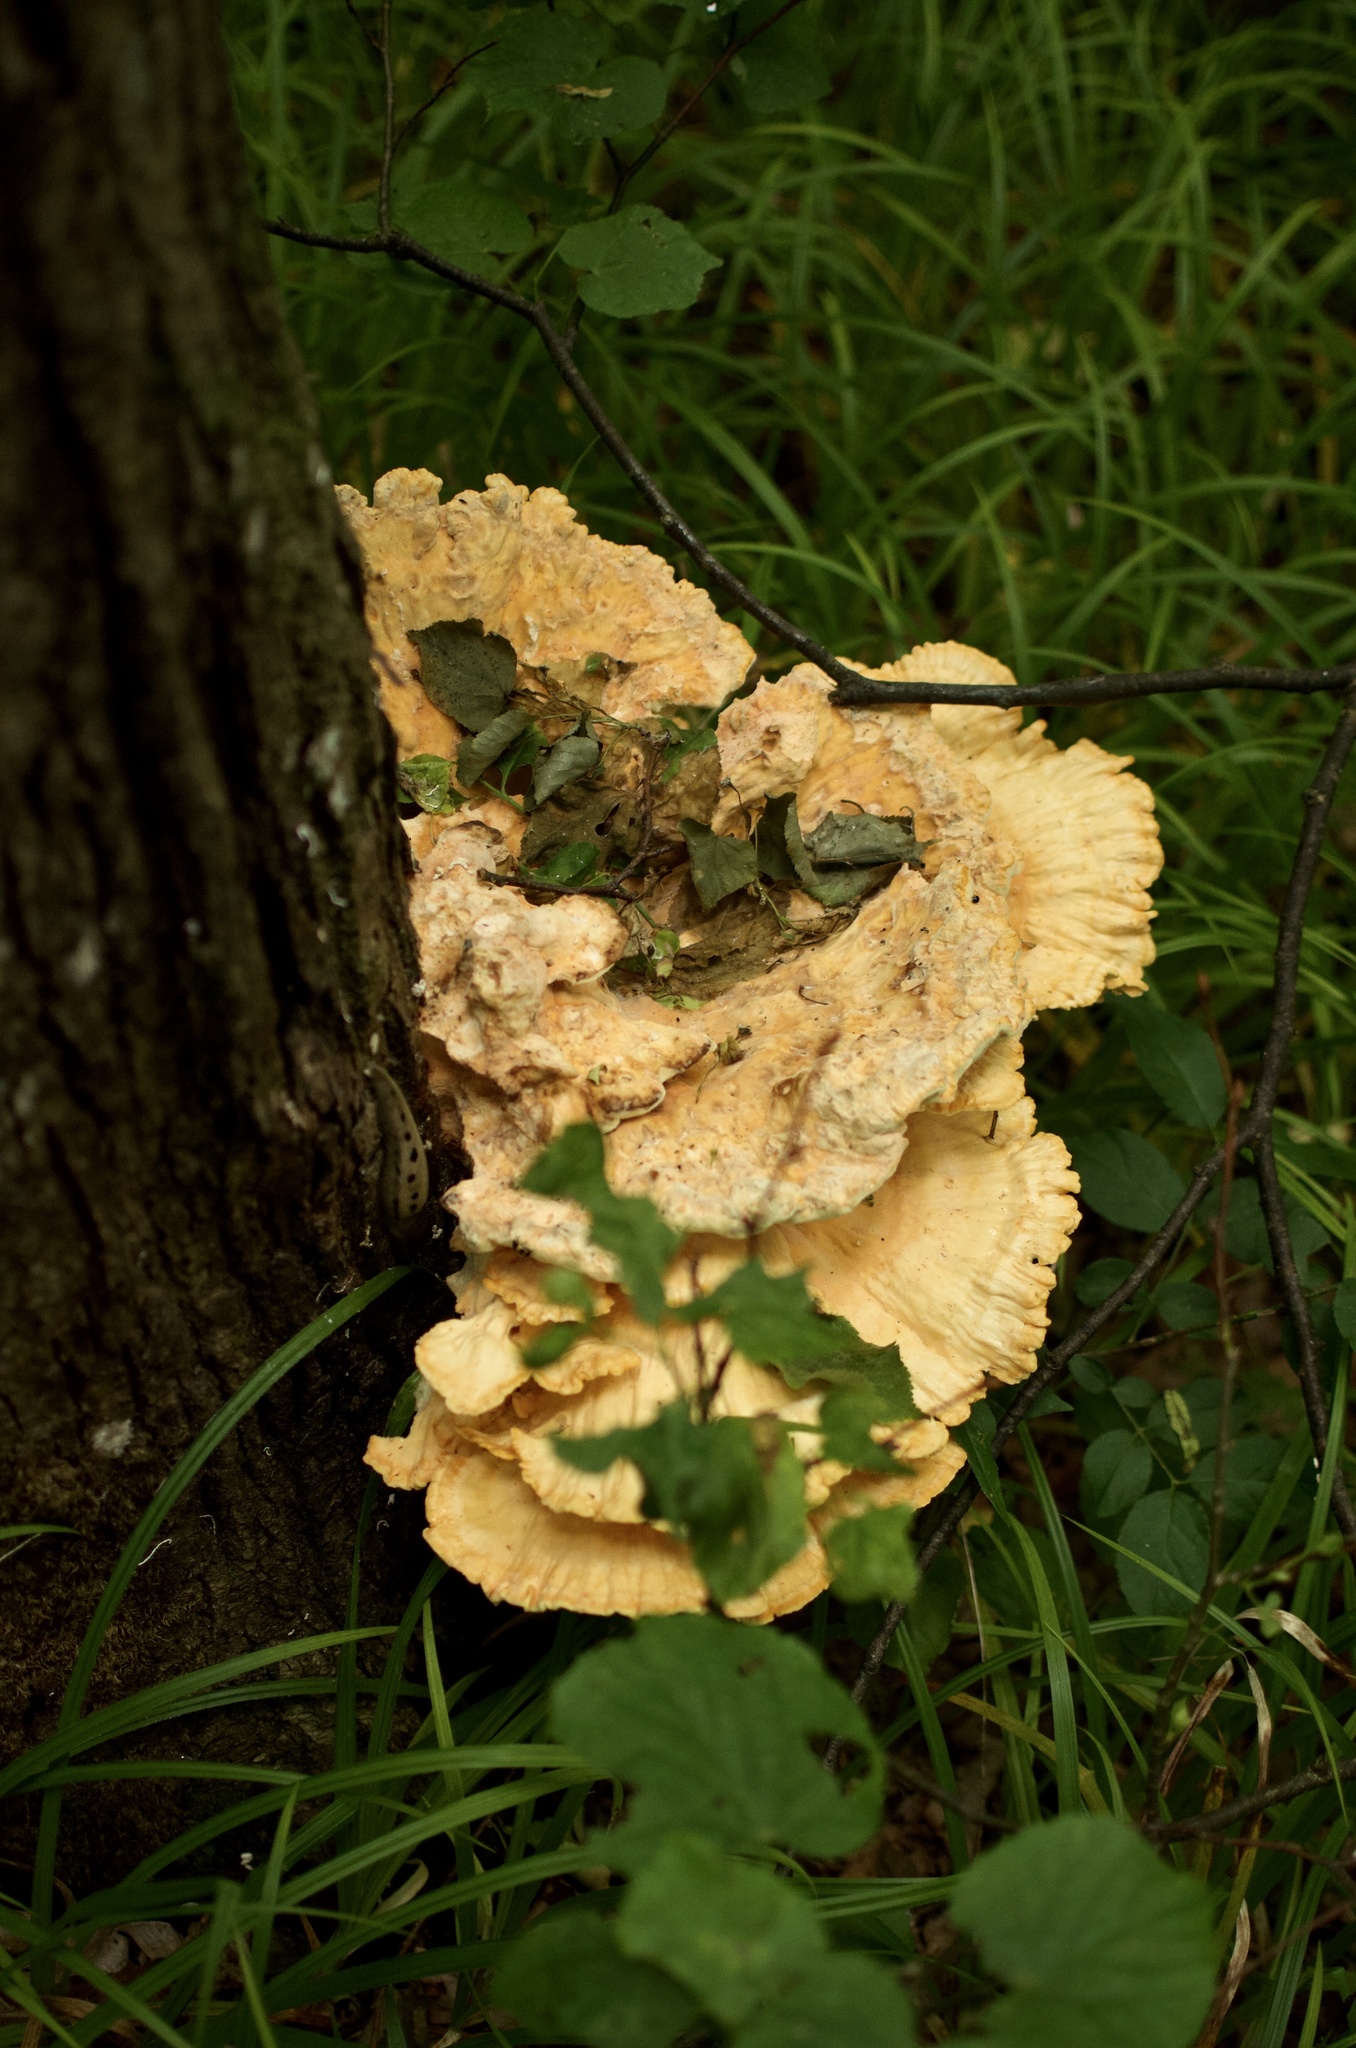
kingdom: Fungi
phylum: Basidiomycota
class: Agaricomycetes
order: Polyporales
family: Laetiporaceae
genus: Laetiporus
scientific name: Laetiporus sulphureus
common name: Chicken of the woods
